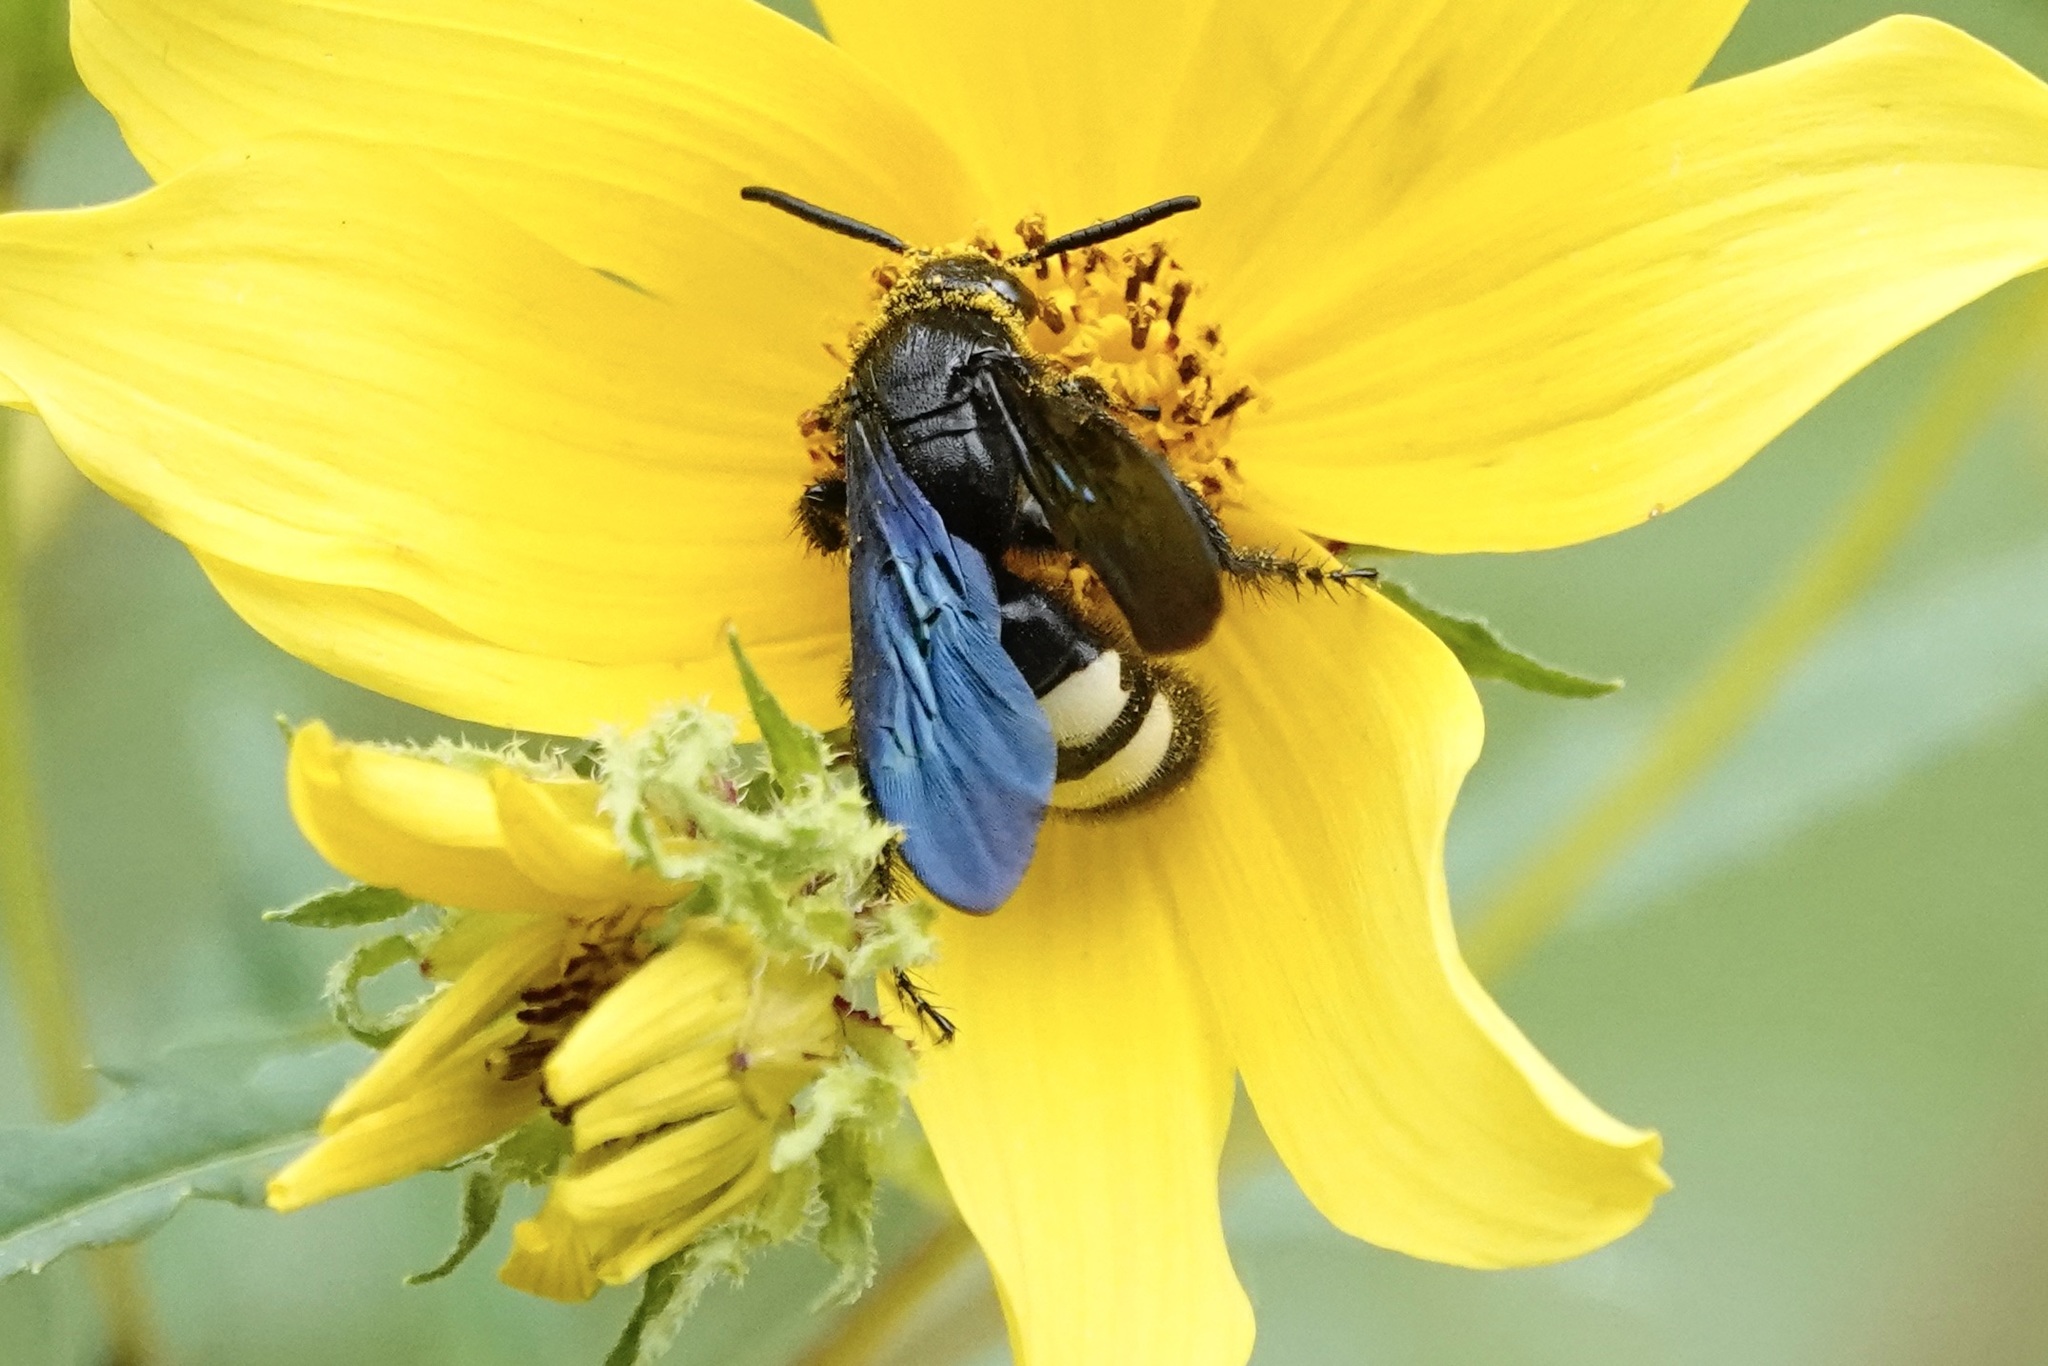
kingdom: Animalia
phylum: Arthropoda
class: Insecta
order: Hymenoptera
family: Scoliidae
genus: Scolia
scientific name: Scolia bicincta
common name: Double-banded scoliid wasp
